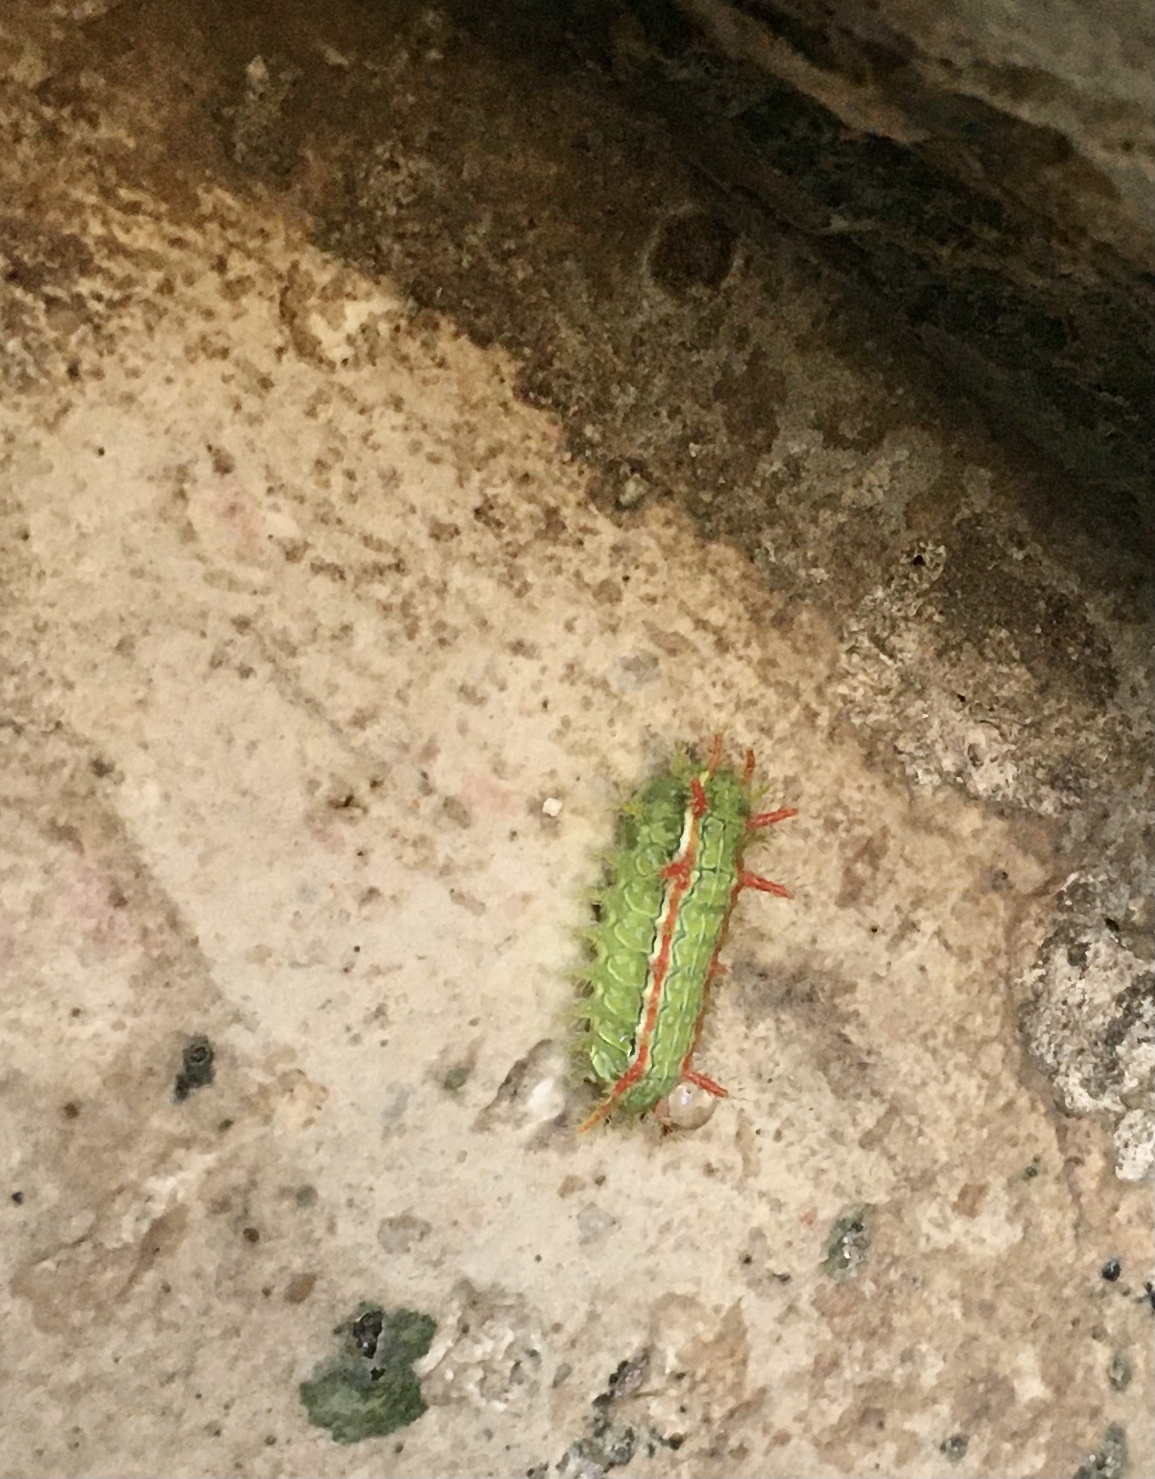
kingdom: Animalia
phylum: Arthropoda
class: Insecta
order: Lepidoptera
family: Limacodidae
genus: Euclea
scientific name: Euclea incisa
